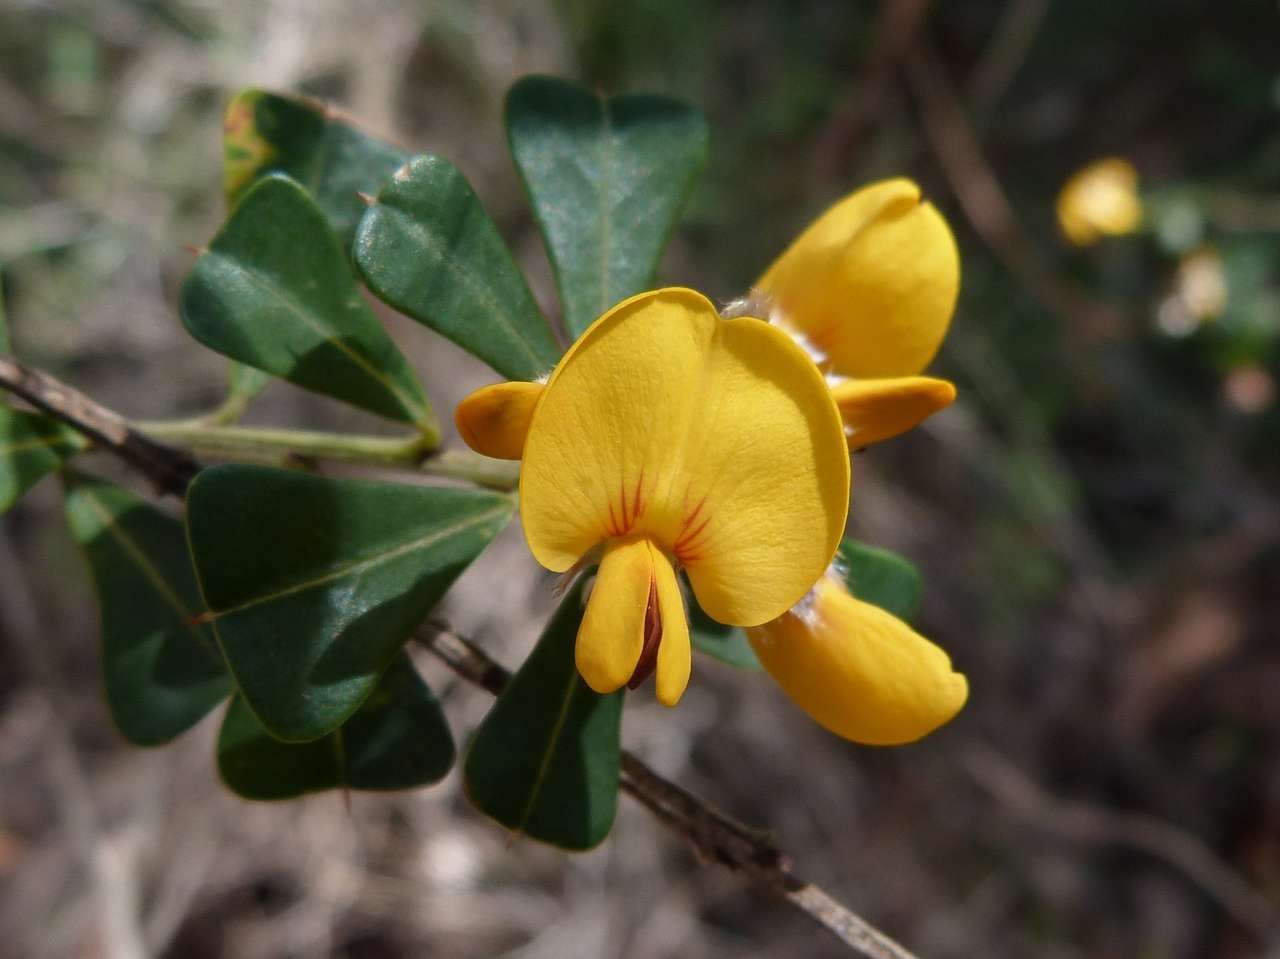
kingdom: Plantae
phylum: Tracheophyta
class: Magnoliopsida
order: Fabales
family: Fabaceae
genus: Pultenaea
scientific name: Pultenaea daphnoides
